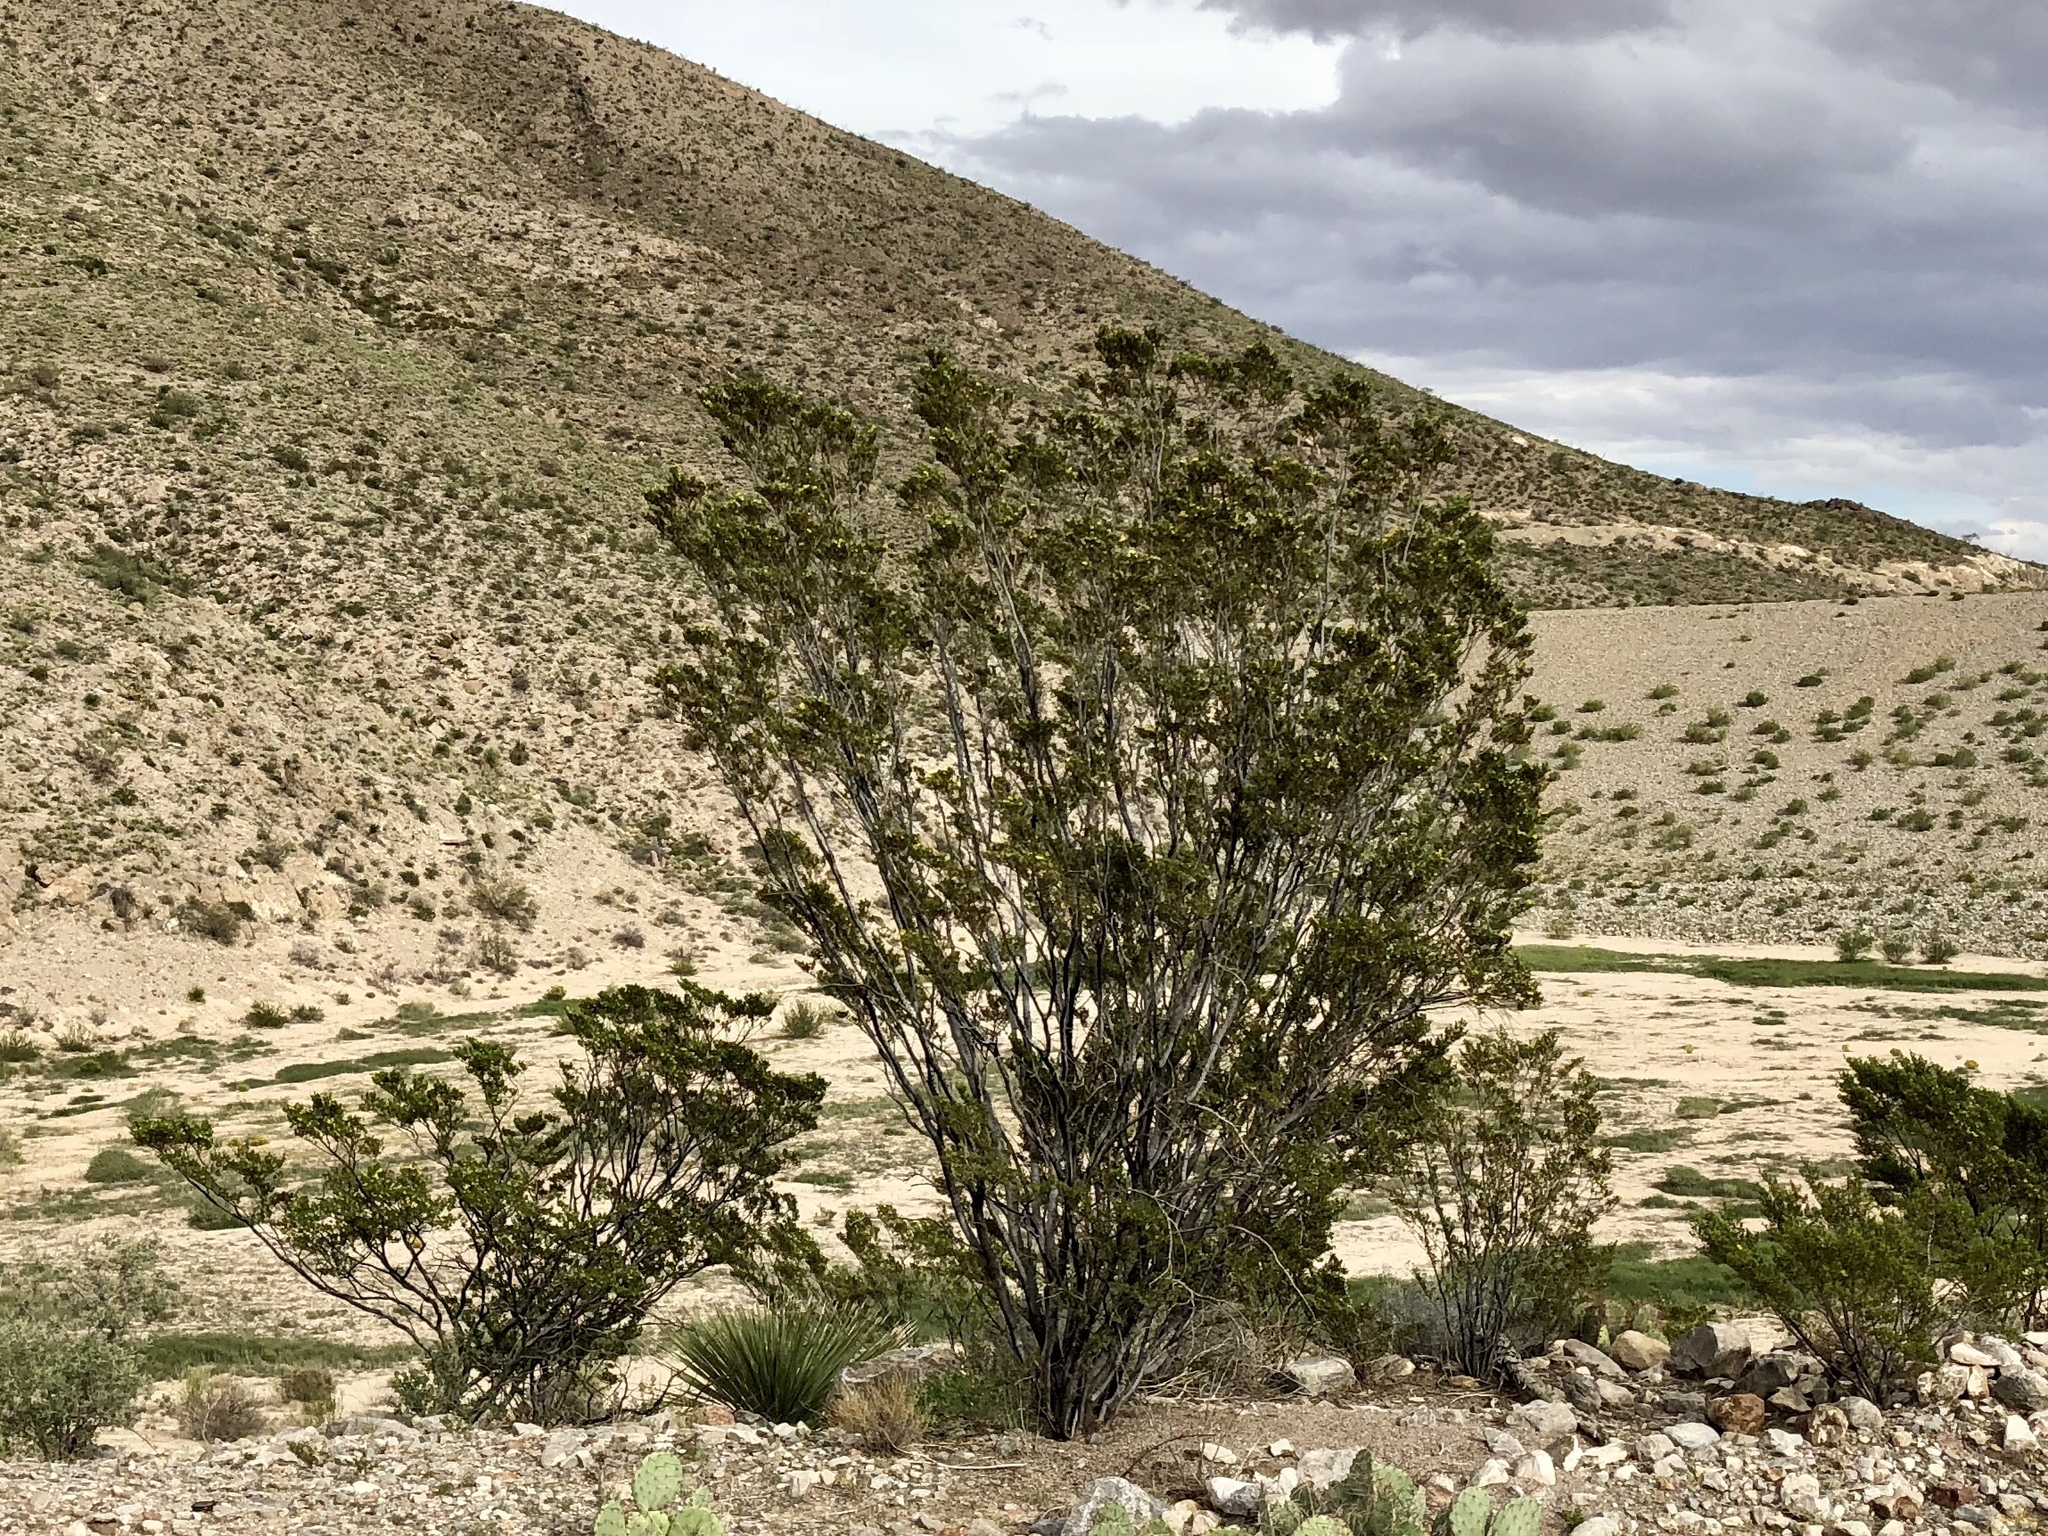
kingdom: Plantae
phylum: Tracheophyta
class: Magnoliopsida
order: Zygophyllales
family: Zygophyllaceae
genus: Larrea
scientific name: Larrea tridentata
